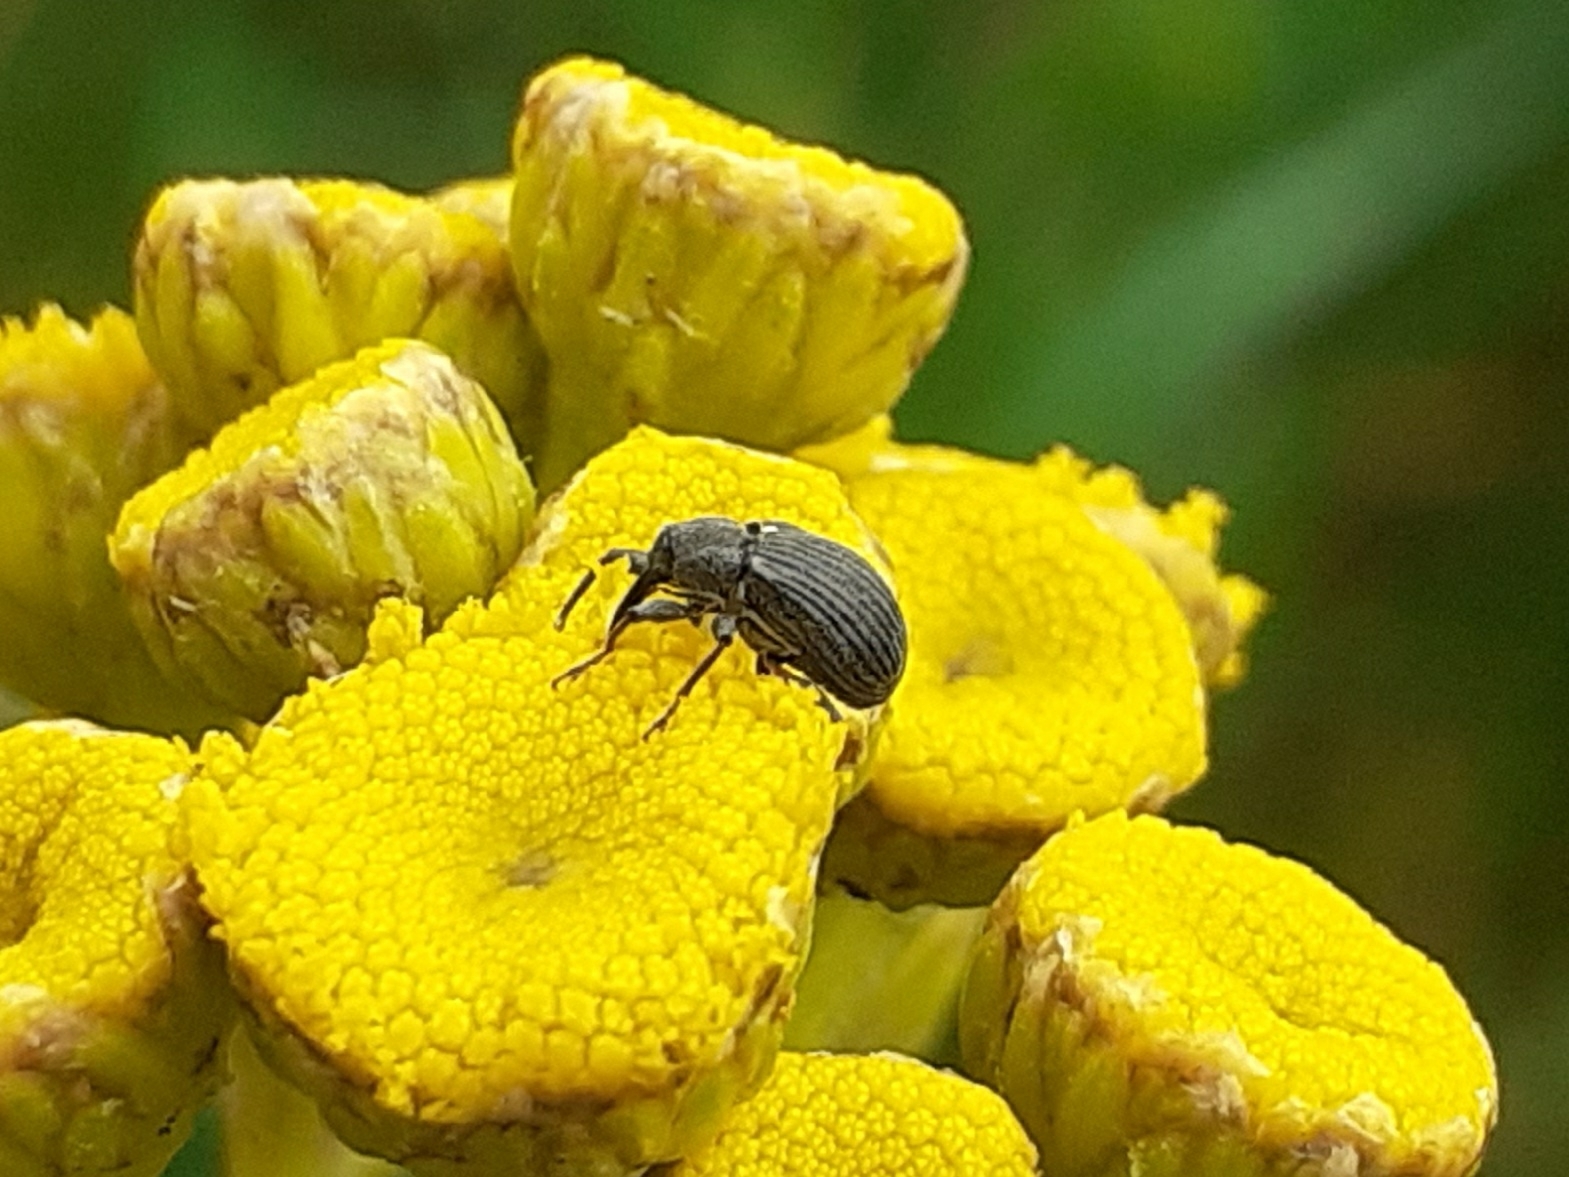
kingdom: Animalia
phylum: Arthropoda
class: Insecta
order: Coleoptera
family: Curculionidae
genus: Anthonomus
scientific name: Anthonomus rubi
